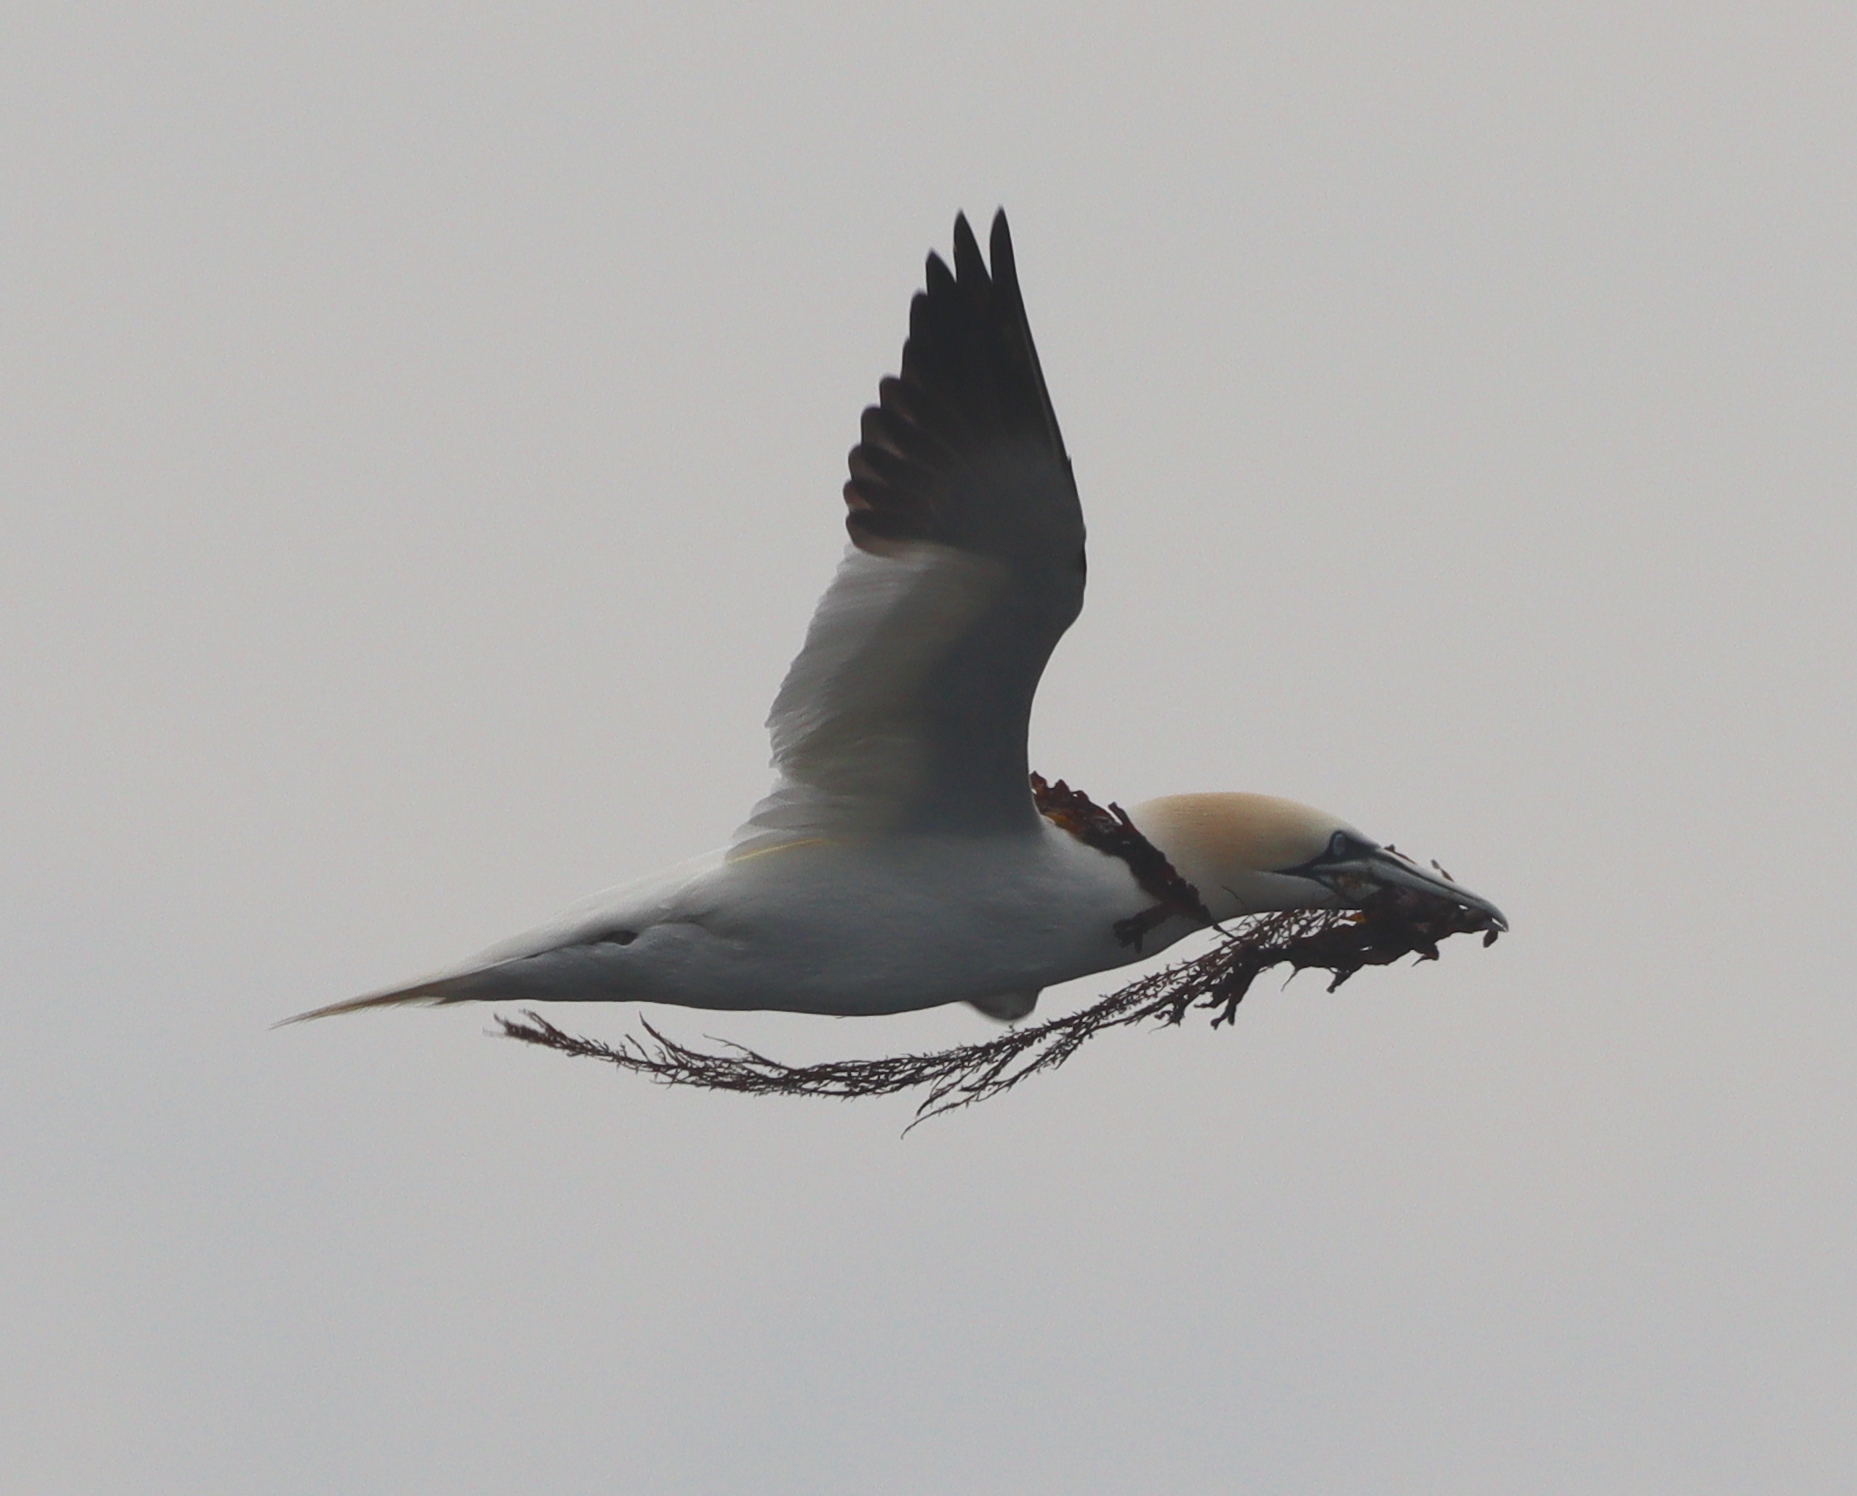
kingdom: Animalia
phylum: Chordata
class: Aves
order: Suliformes
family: Sulidae
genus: Morus
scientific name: Morus bassanus
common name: Northern gannet
